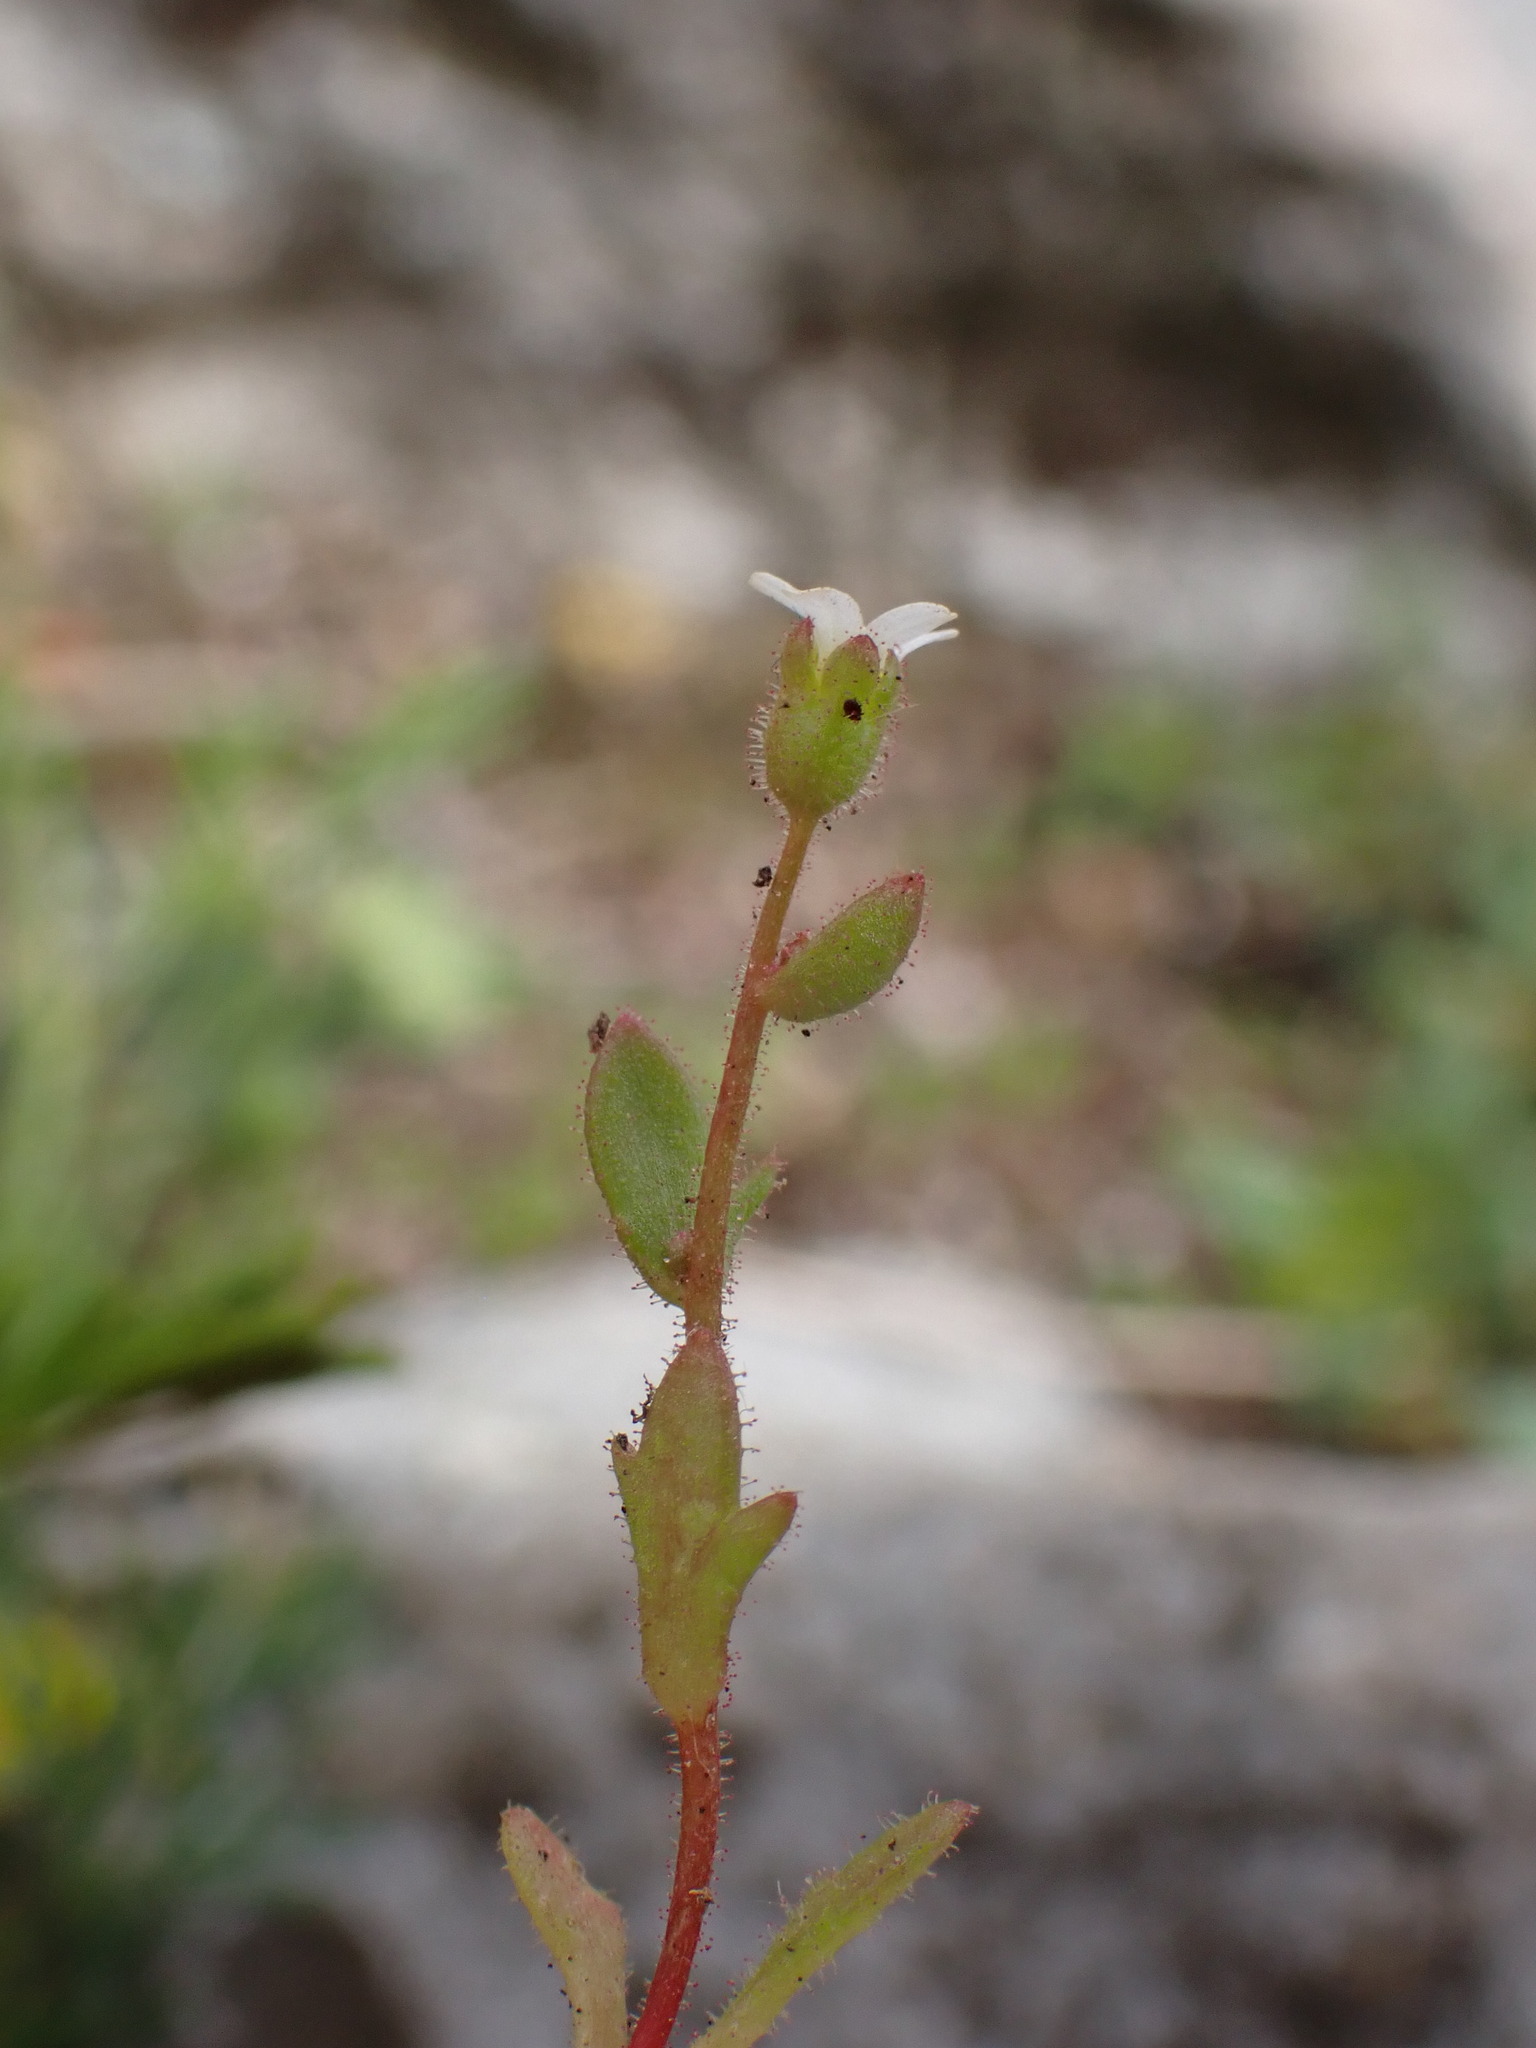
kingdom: Plantae
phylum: Tracheophyta
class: Magnoliopsida
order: Saxifragales
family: Saxifragaceae
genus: Saxifraga
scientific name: Saxifraga tridactylites
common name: Rue-leaved saxifrage
